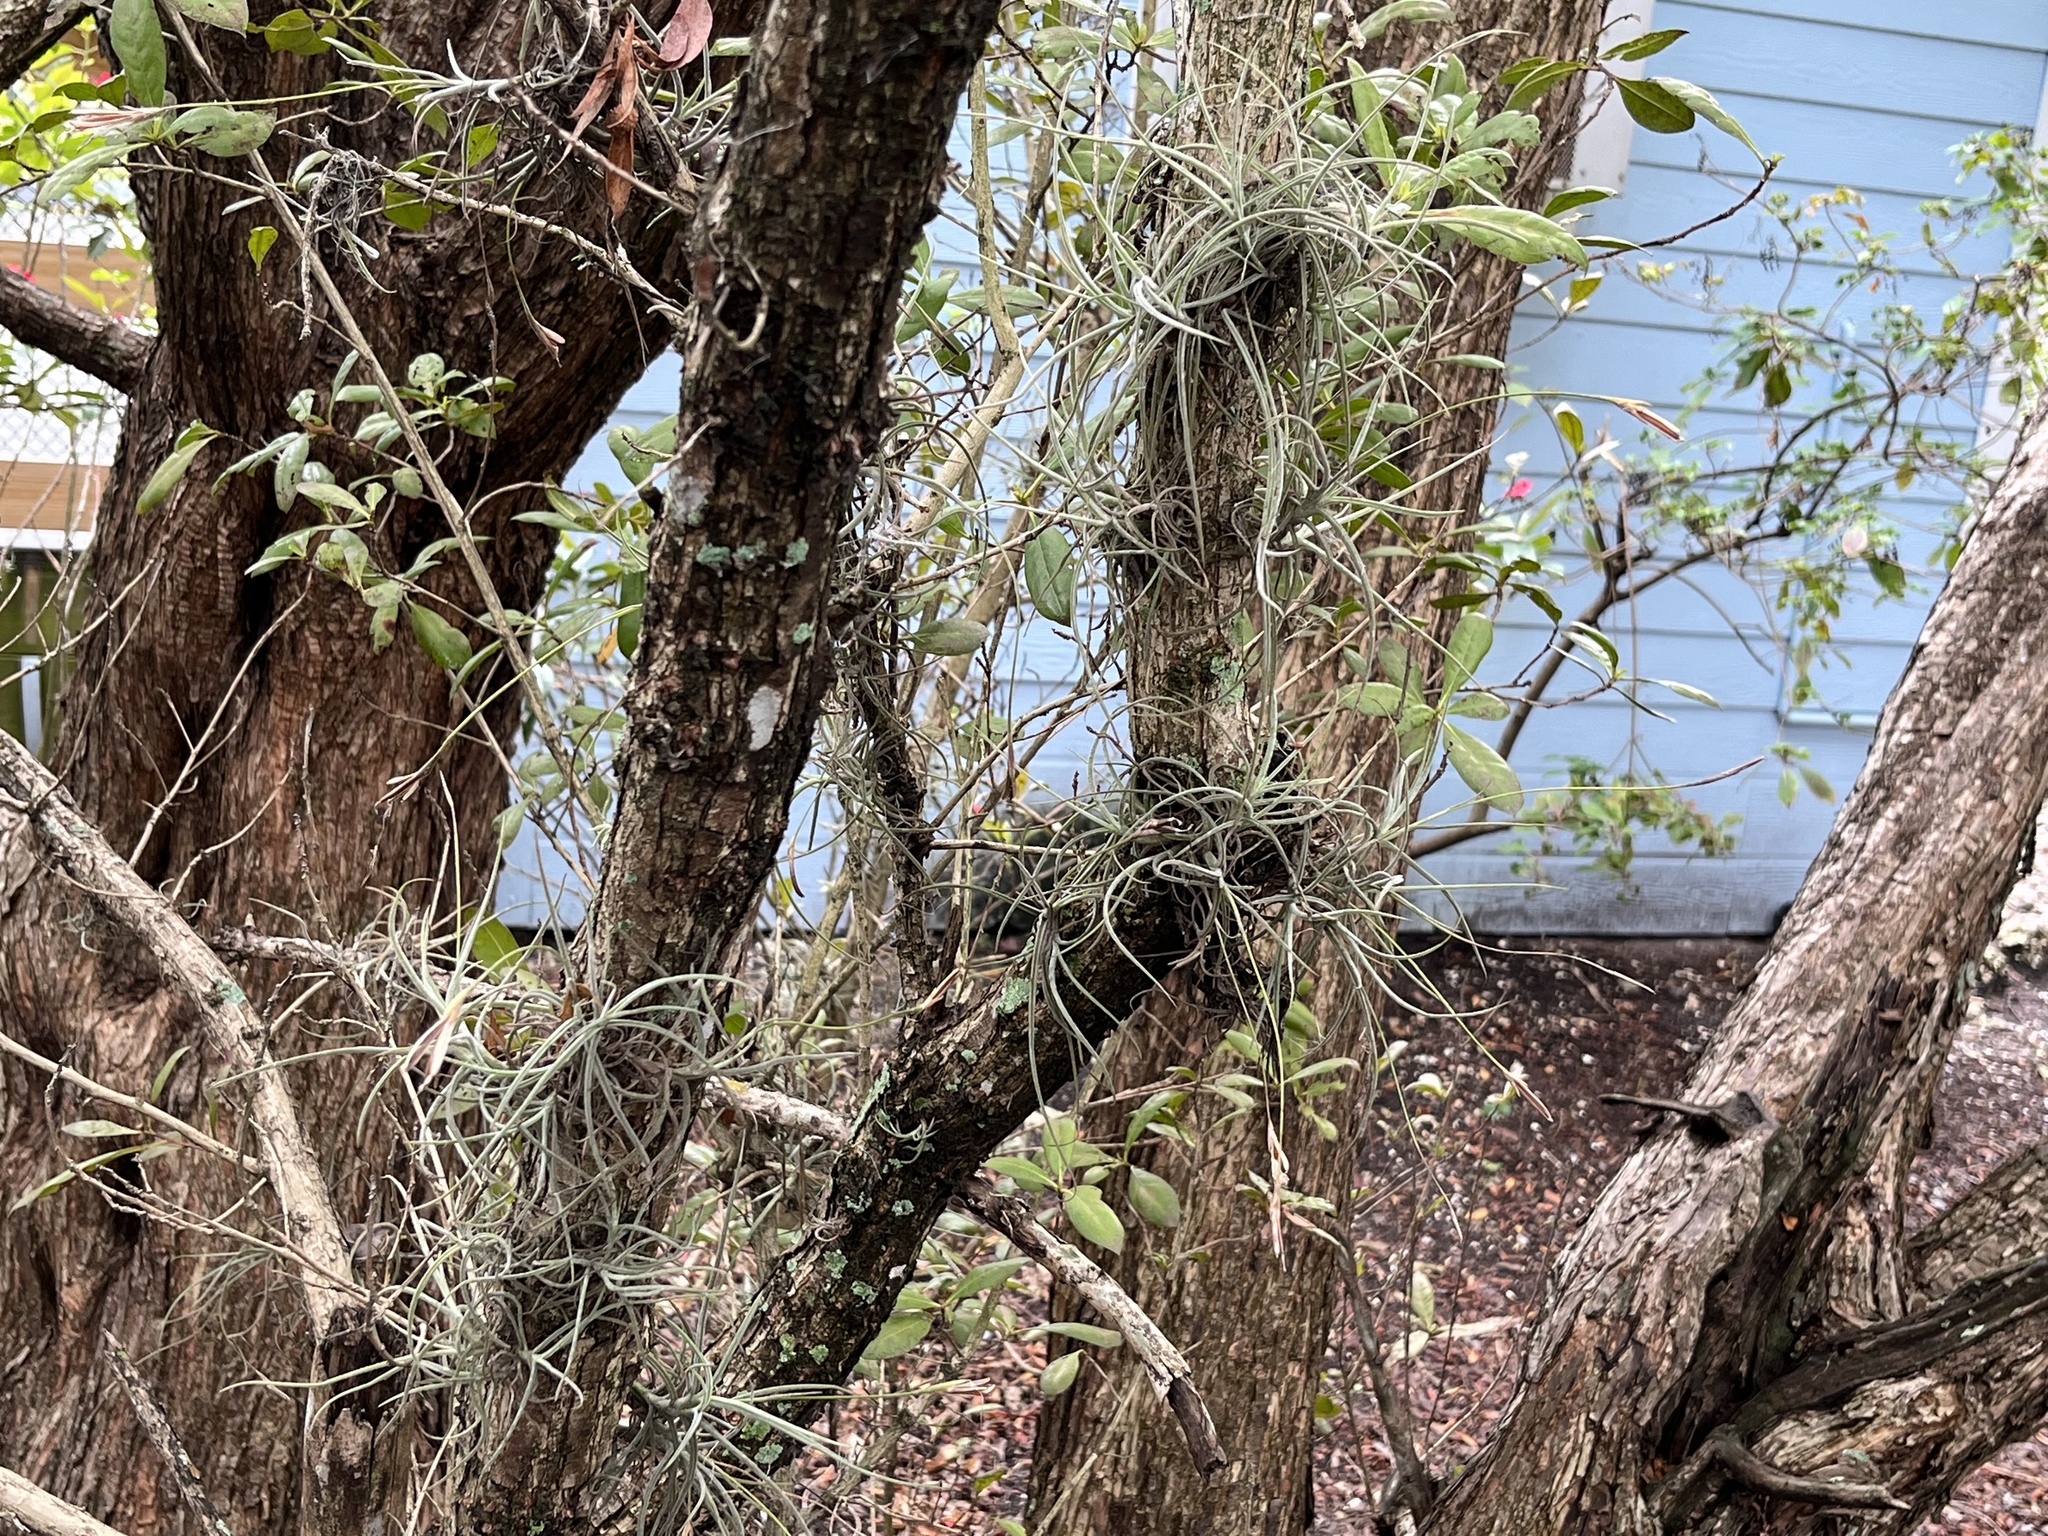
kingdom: Plantae
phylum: Tracheophyta
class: Liliopsida
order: Poales
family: Bromeliaceae
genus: Tillandsia
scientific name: Tillandsia recurvata
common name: Small ballmoss
